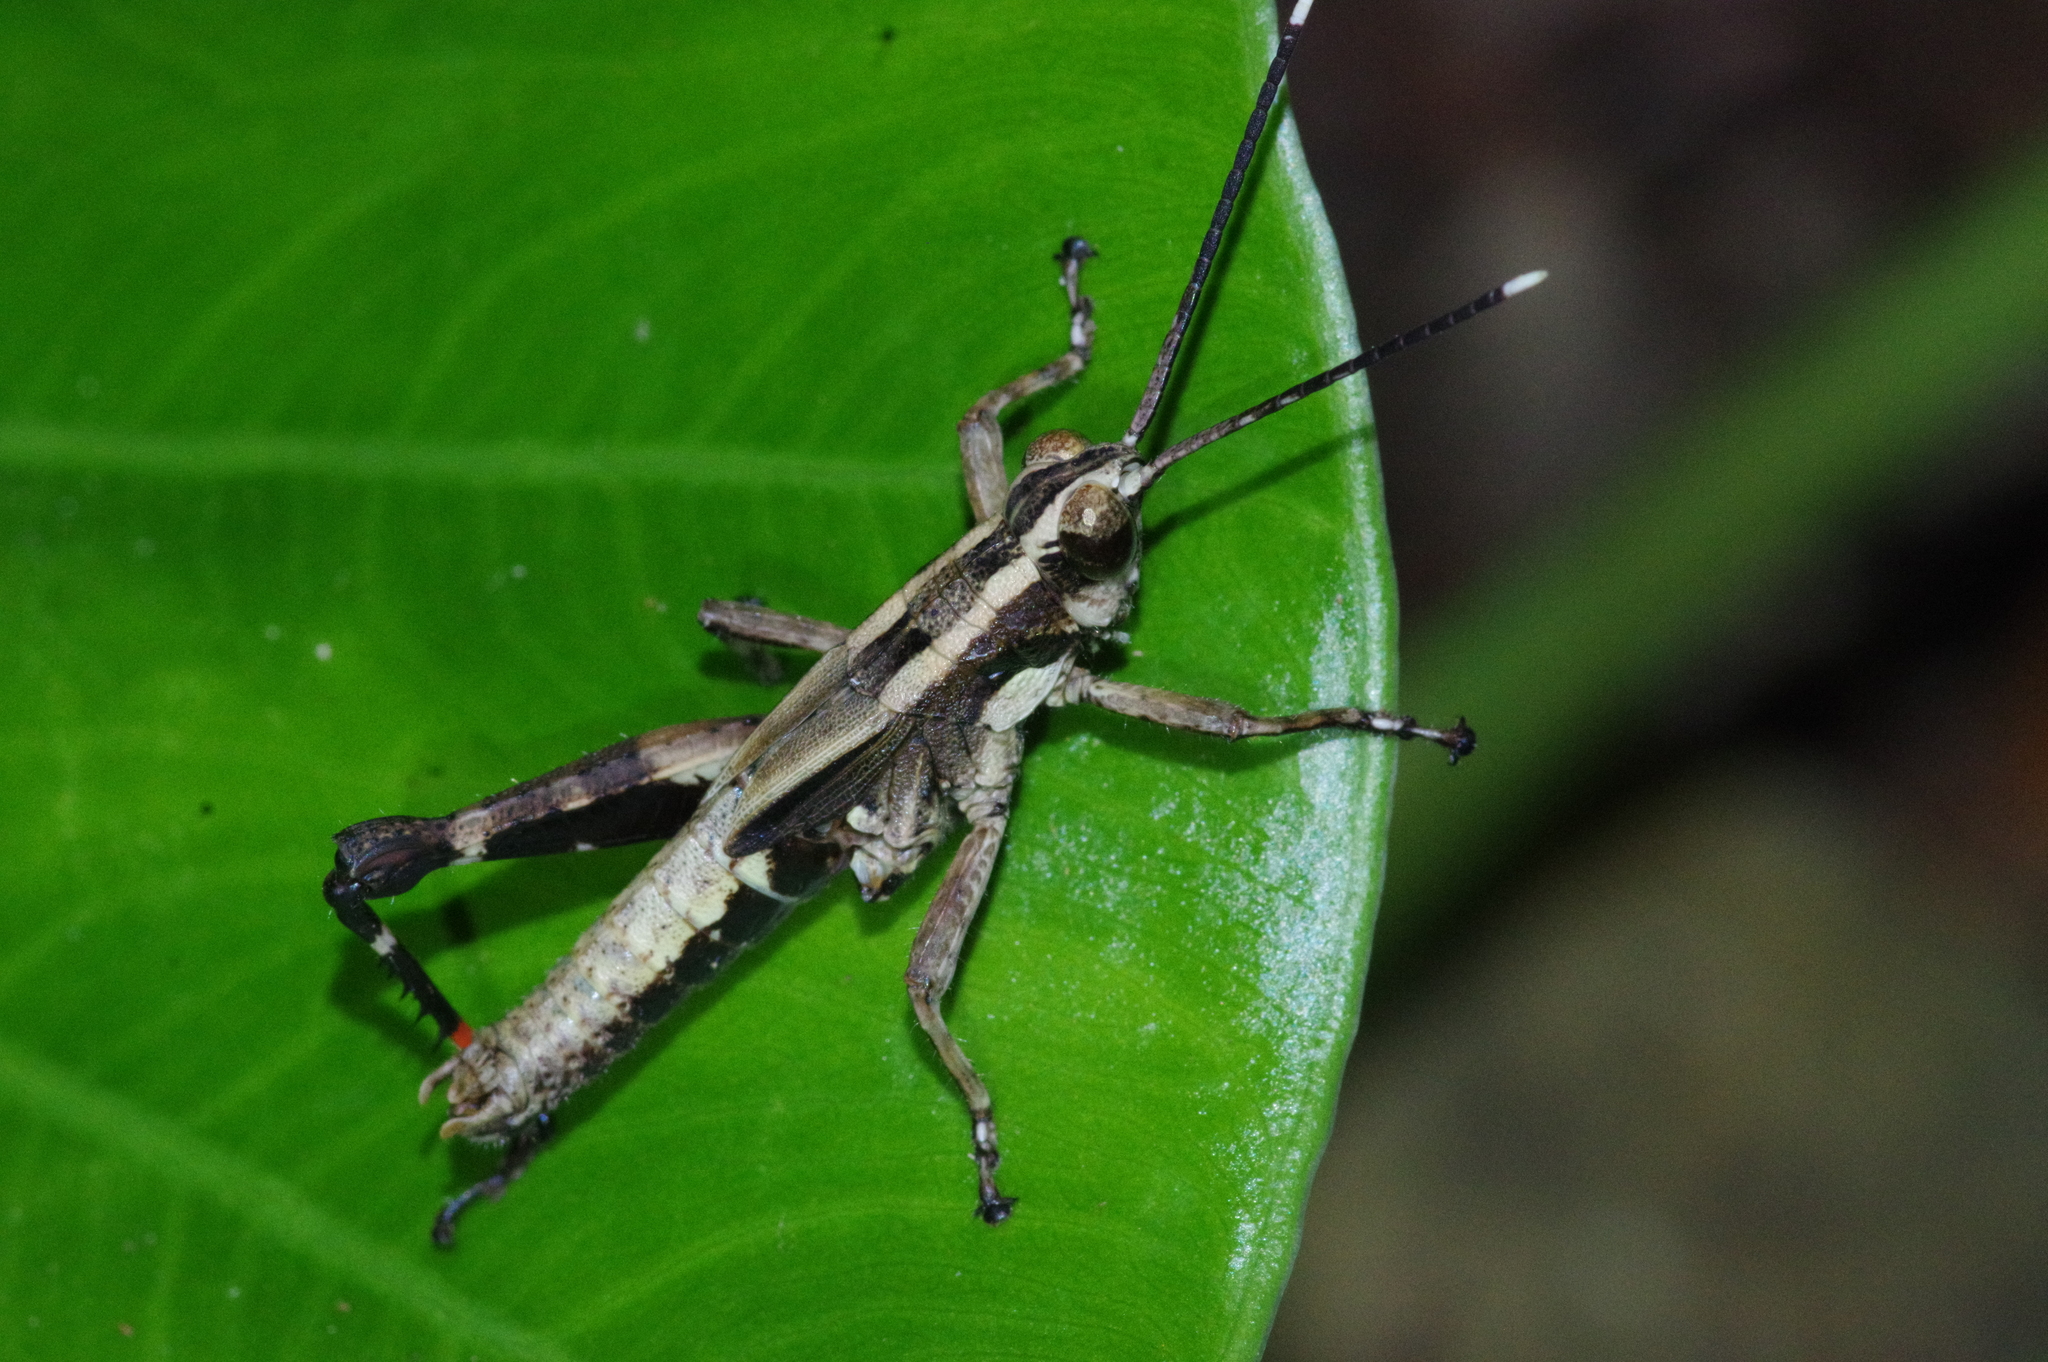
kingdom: Animalia
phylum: Arthropoda
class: Insecta
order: Orthoptera
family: Acrididae
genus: Traulia
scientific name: Traulia ornata
